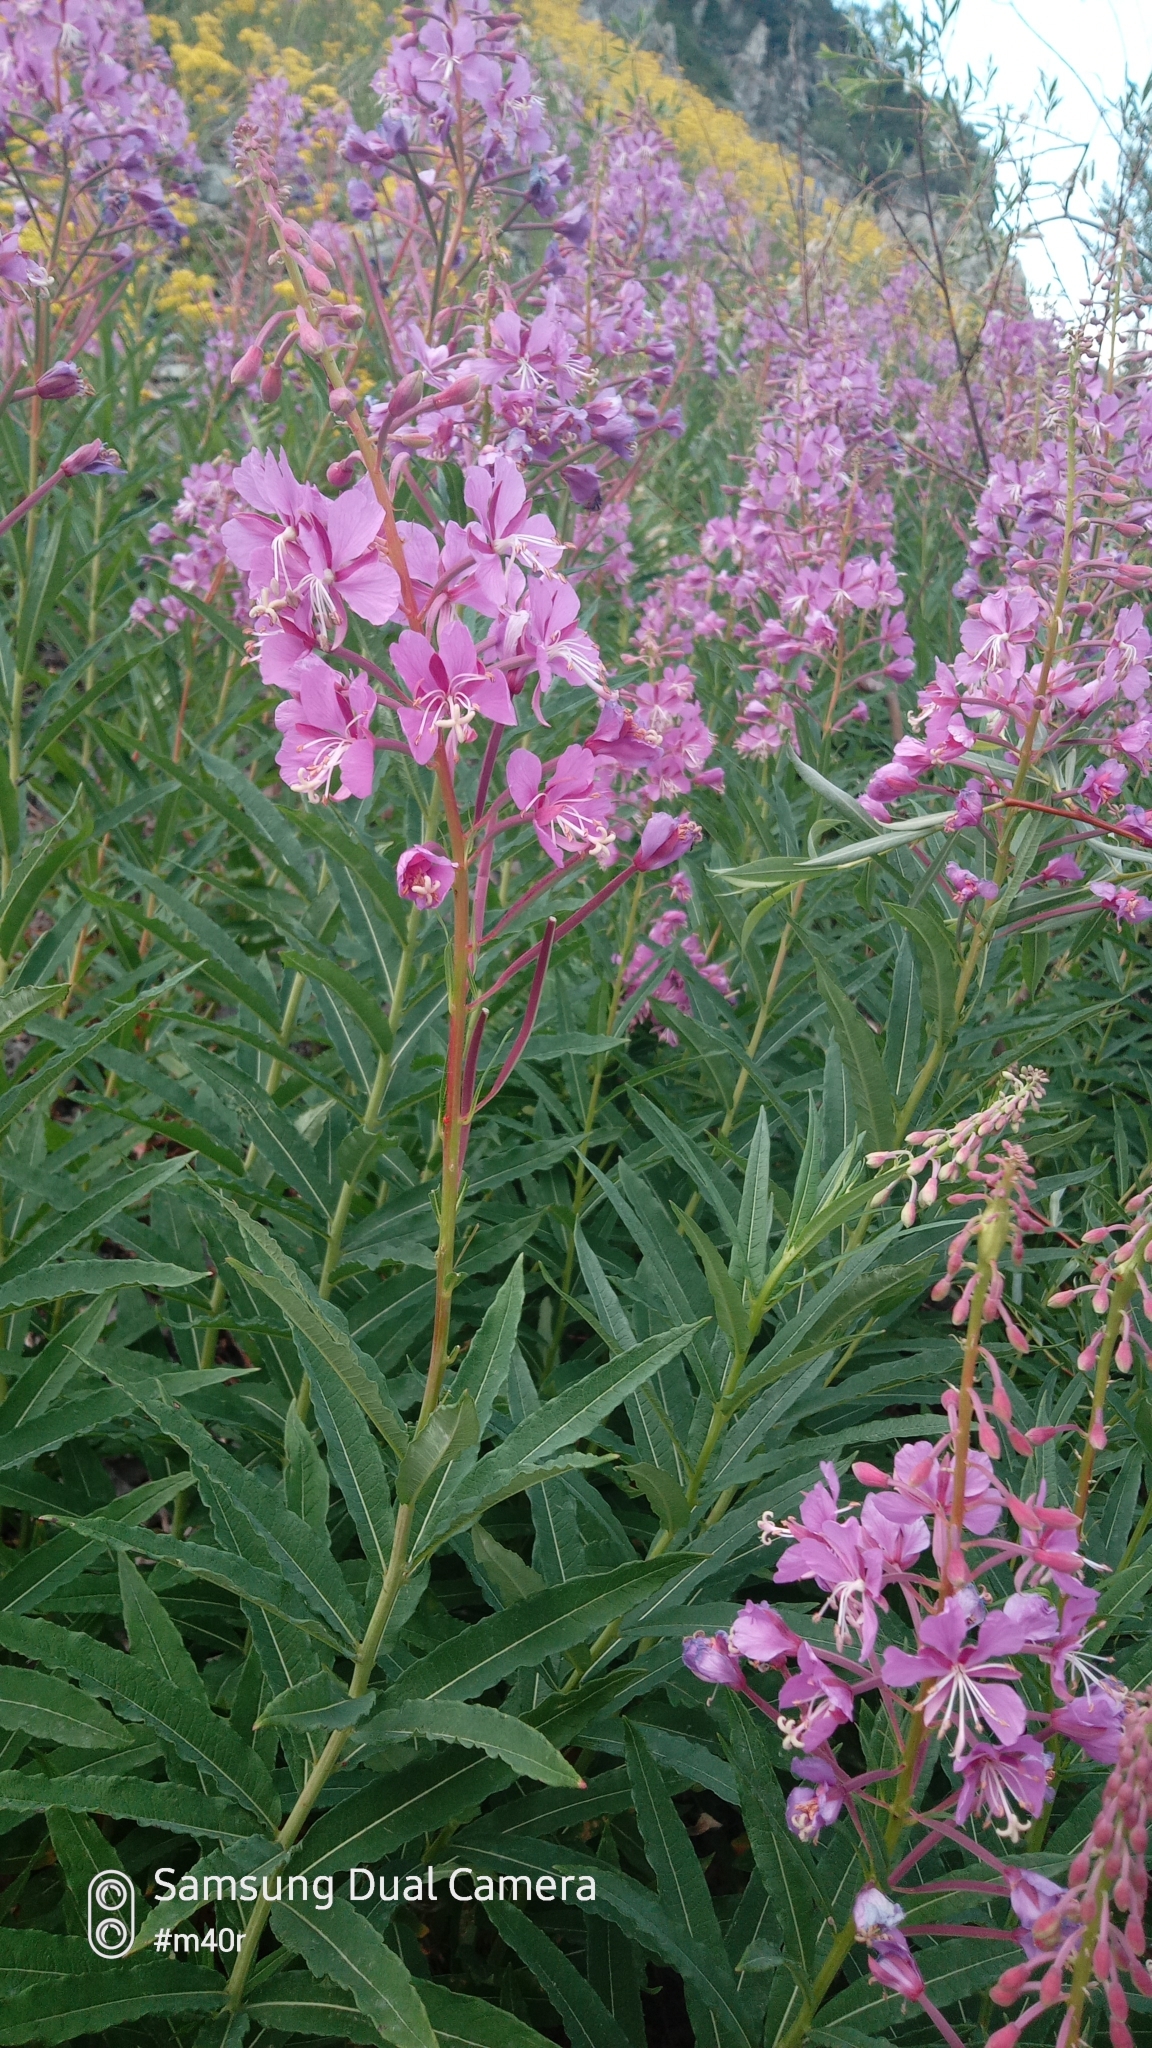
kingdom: Plantae
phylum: Tracheophyta
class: Magnoliopsida
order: Myrtales
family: Onagraceae
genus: Chamaenerion
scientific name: Chamaenerion angustifolium
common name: Fireweed
